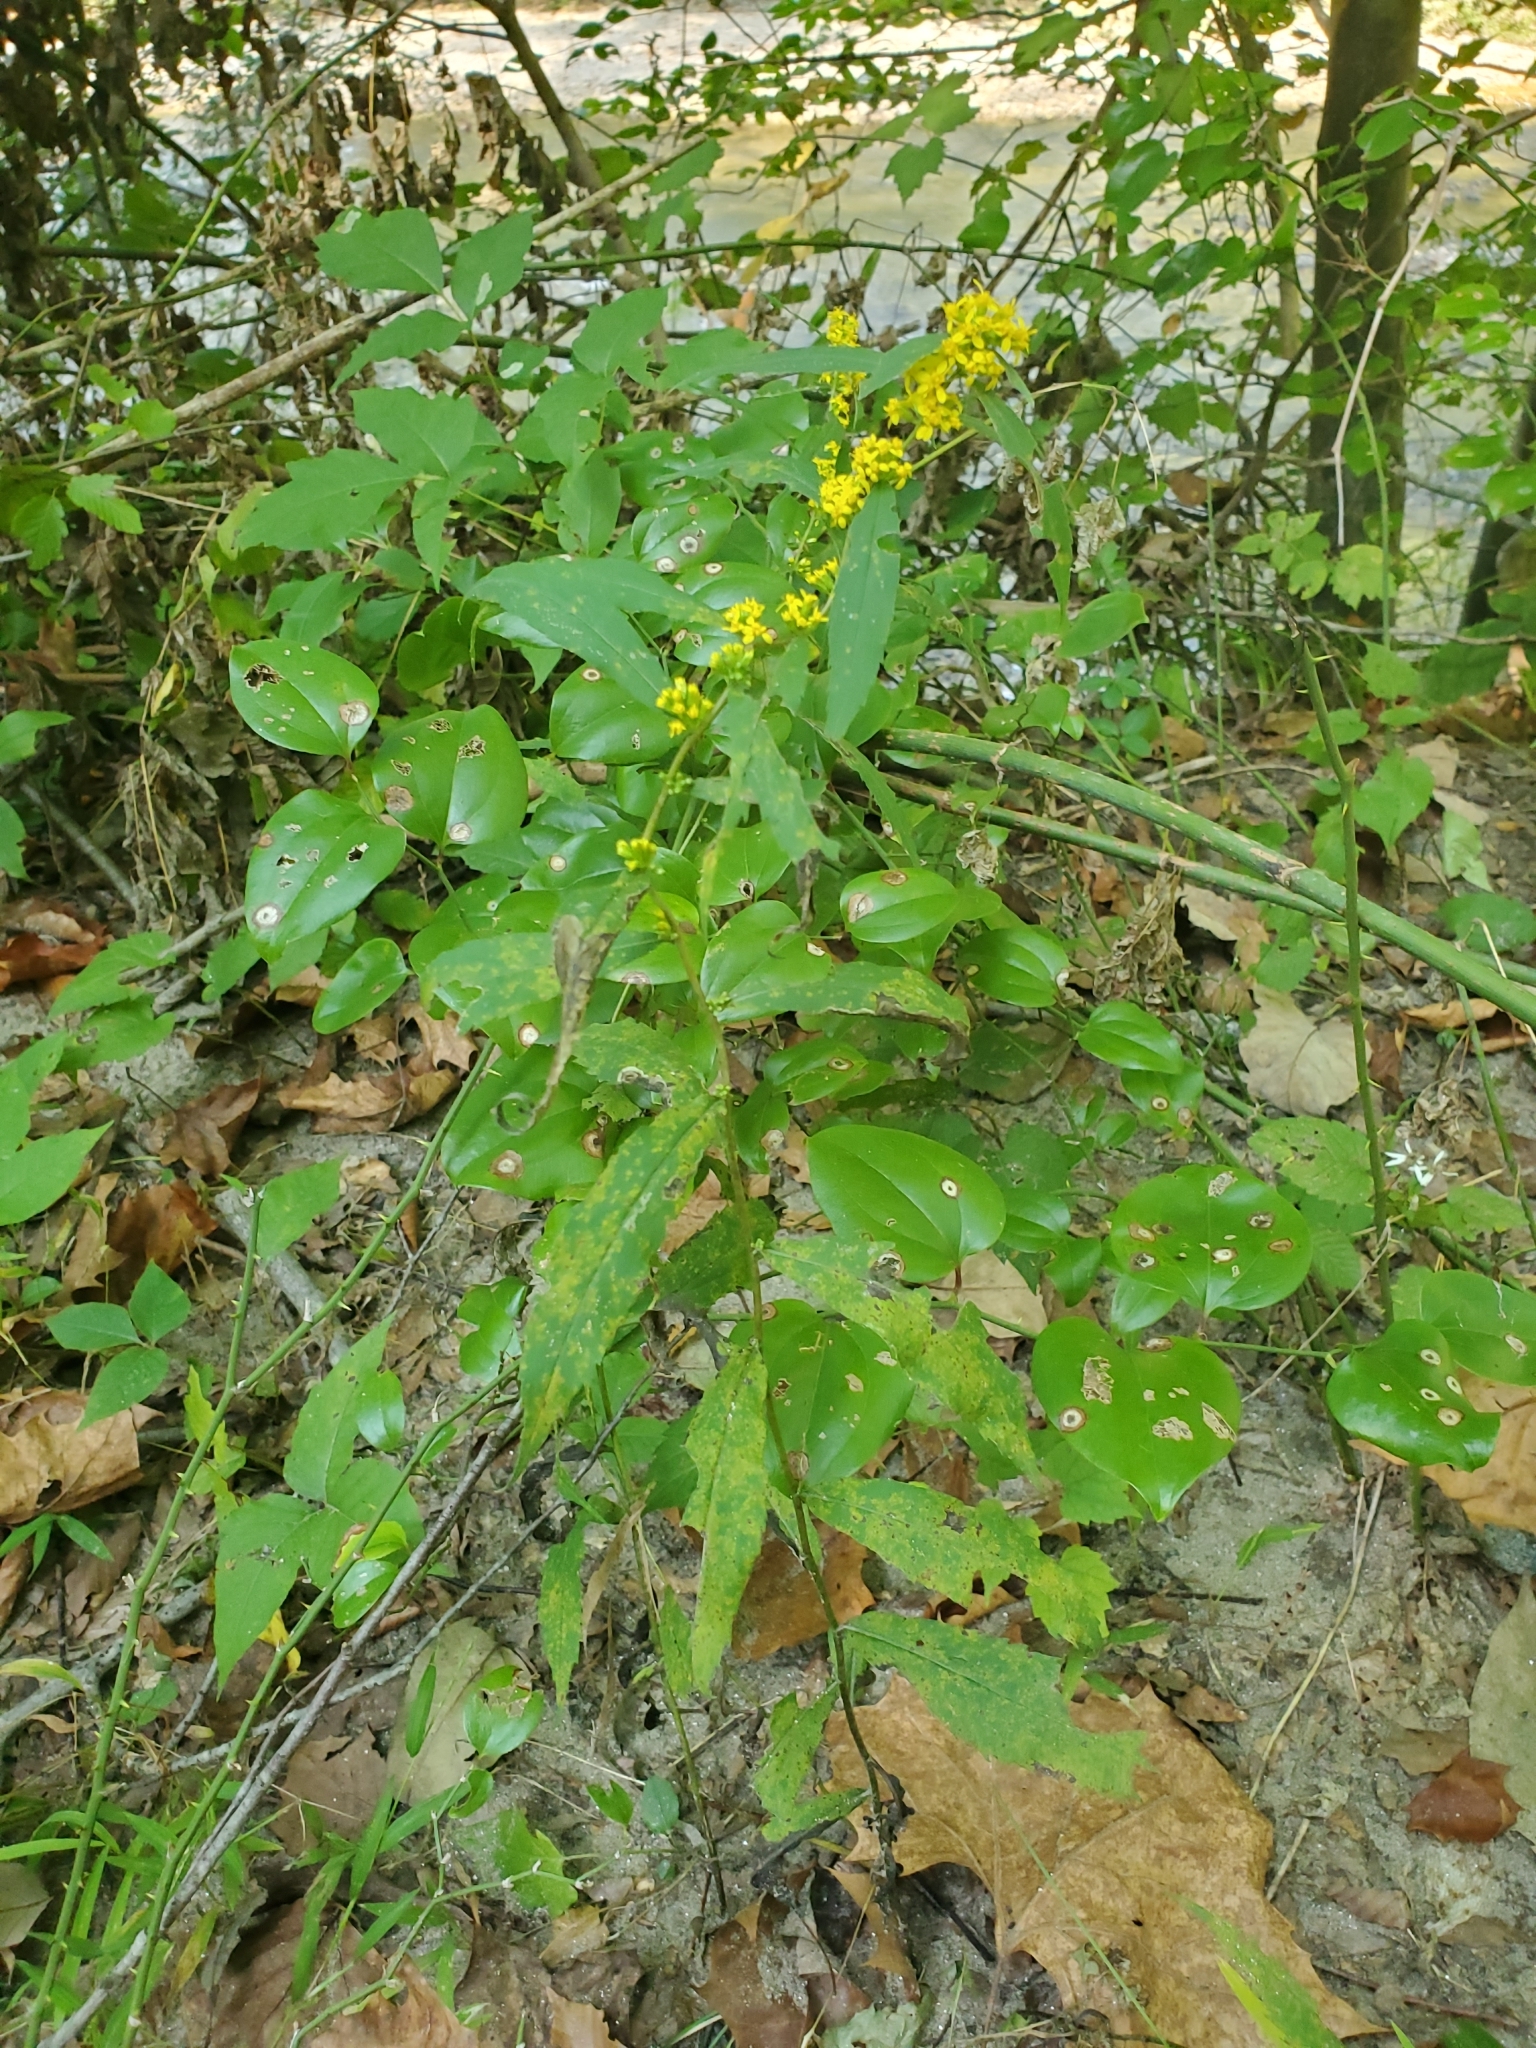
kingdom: Plantae
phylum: Tracheophyta
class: Magnoliopsida
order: Asterales
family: Asteraceae
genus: Solidago
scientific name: Solidago caesia
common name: Woodland goldenrod
